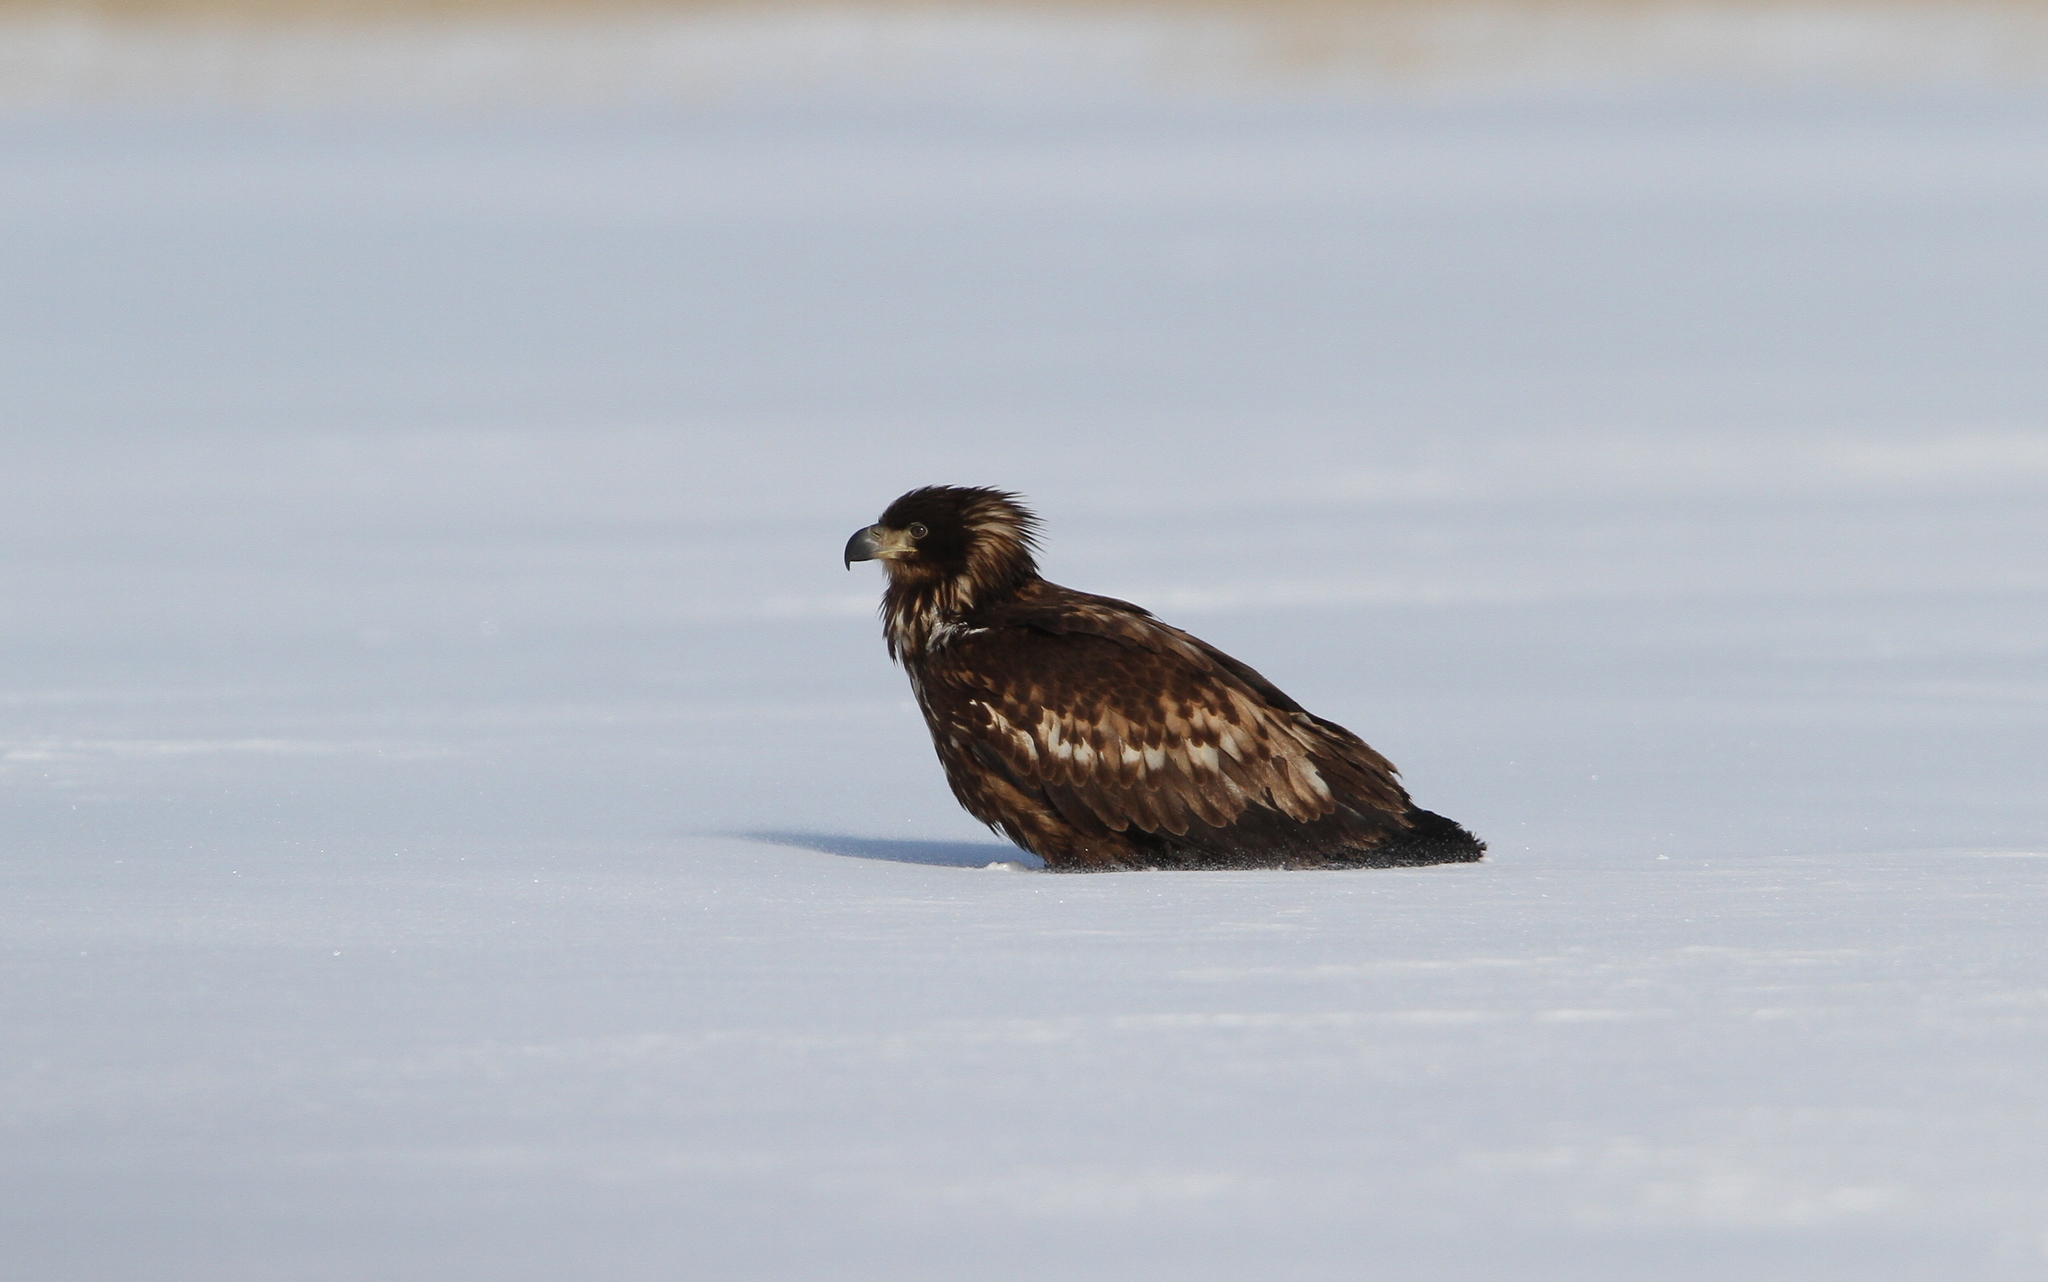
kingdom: Animalia
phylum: Chordata
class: Aves
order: Accipitriformes
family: Accipitridae
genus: Haliaeetus
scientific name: Haliaeetus albicilla
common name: White-tailed eagle
